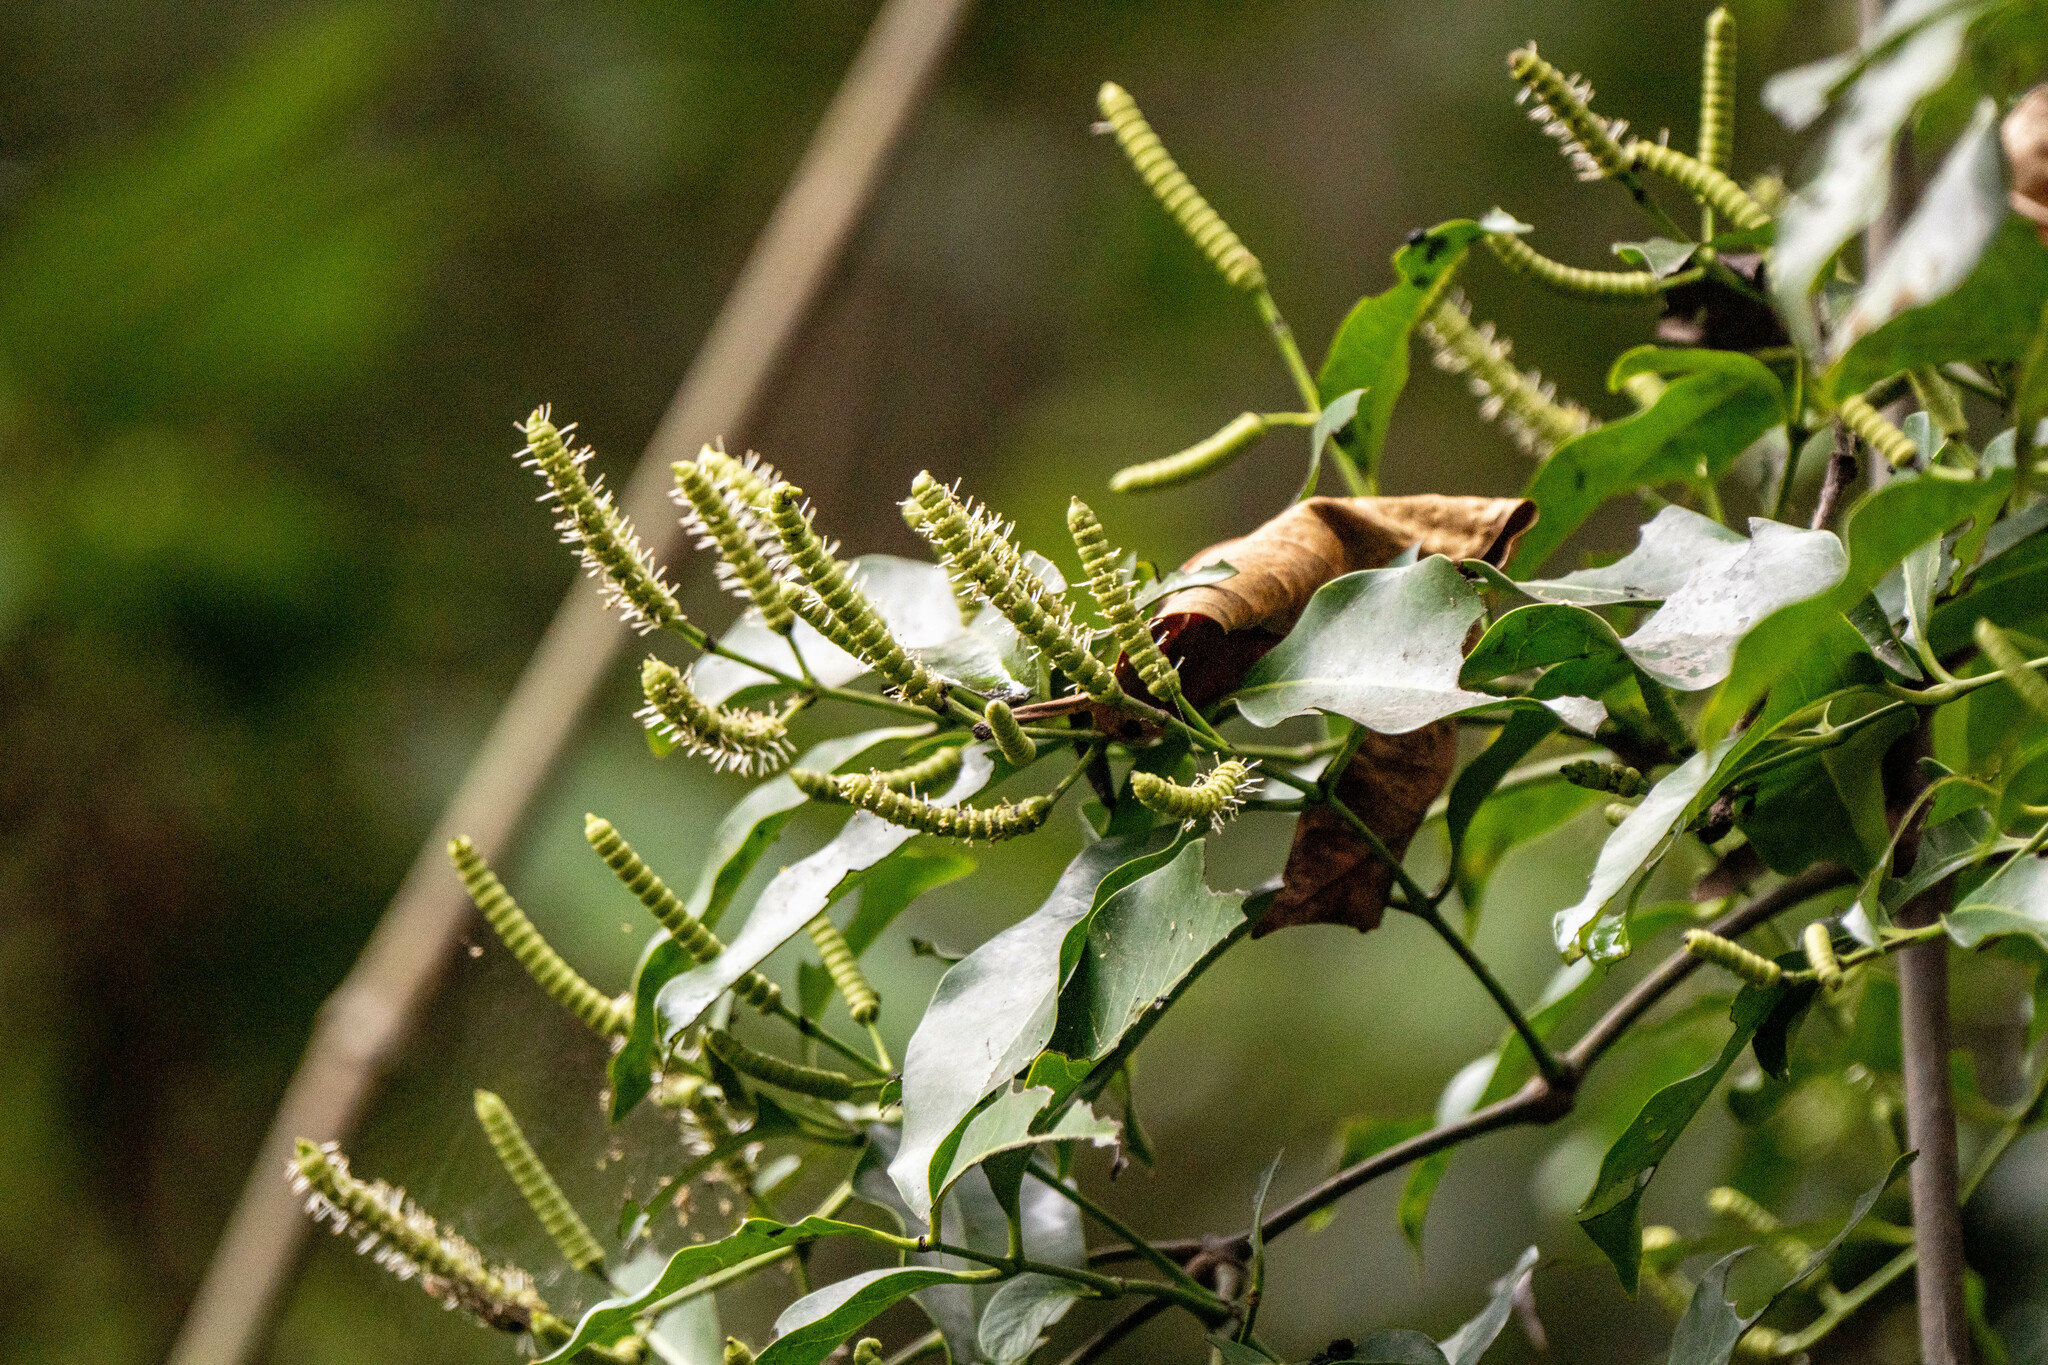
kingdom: Plantae
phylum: Tracheophyta
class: Gnetopsida
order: Gnetales
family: Gnetaceae
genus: Gnetum
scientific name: Gnetum luofuense
